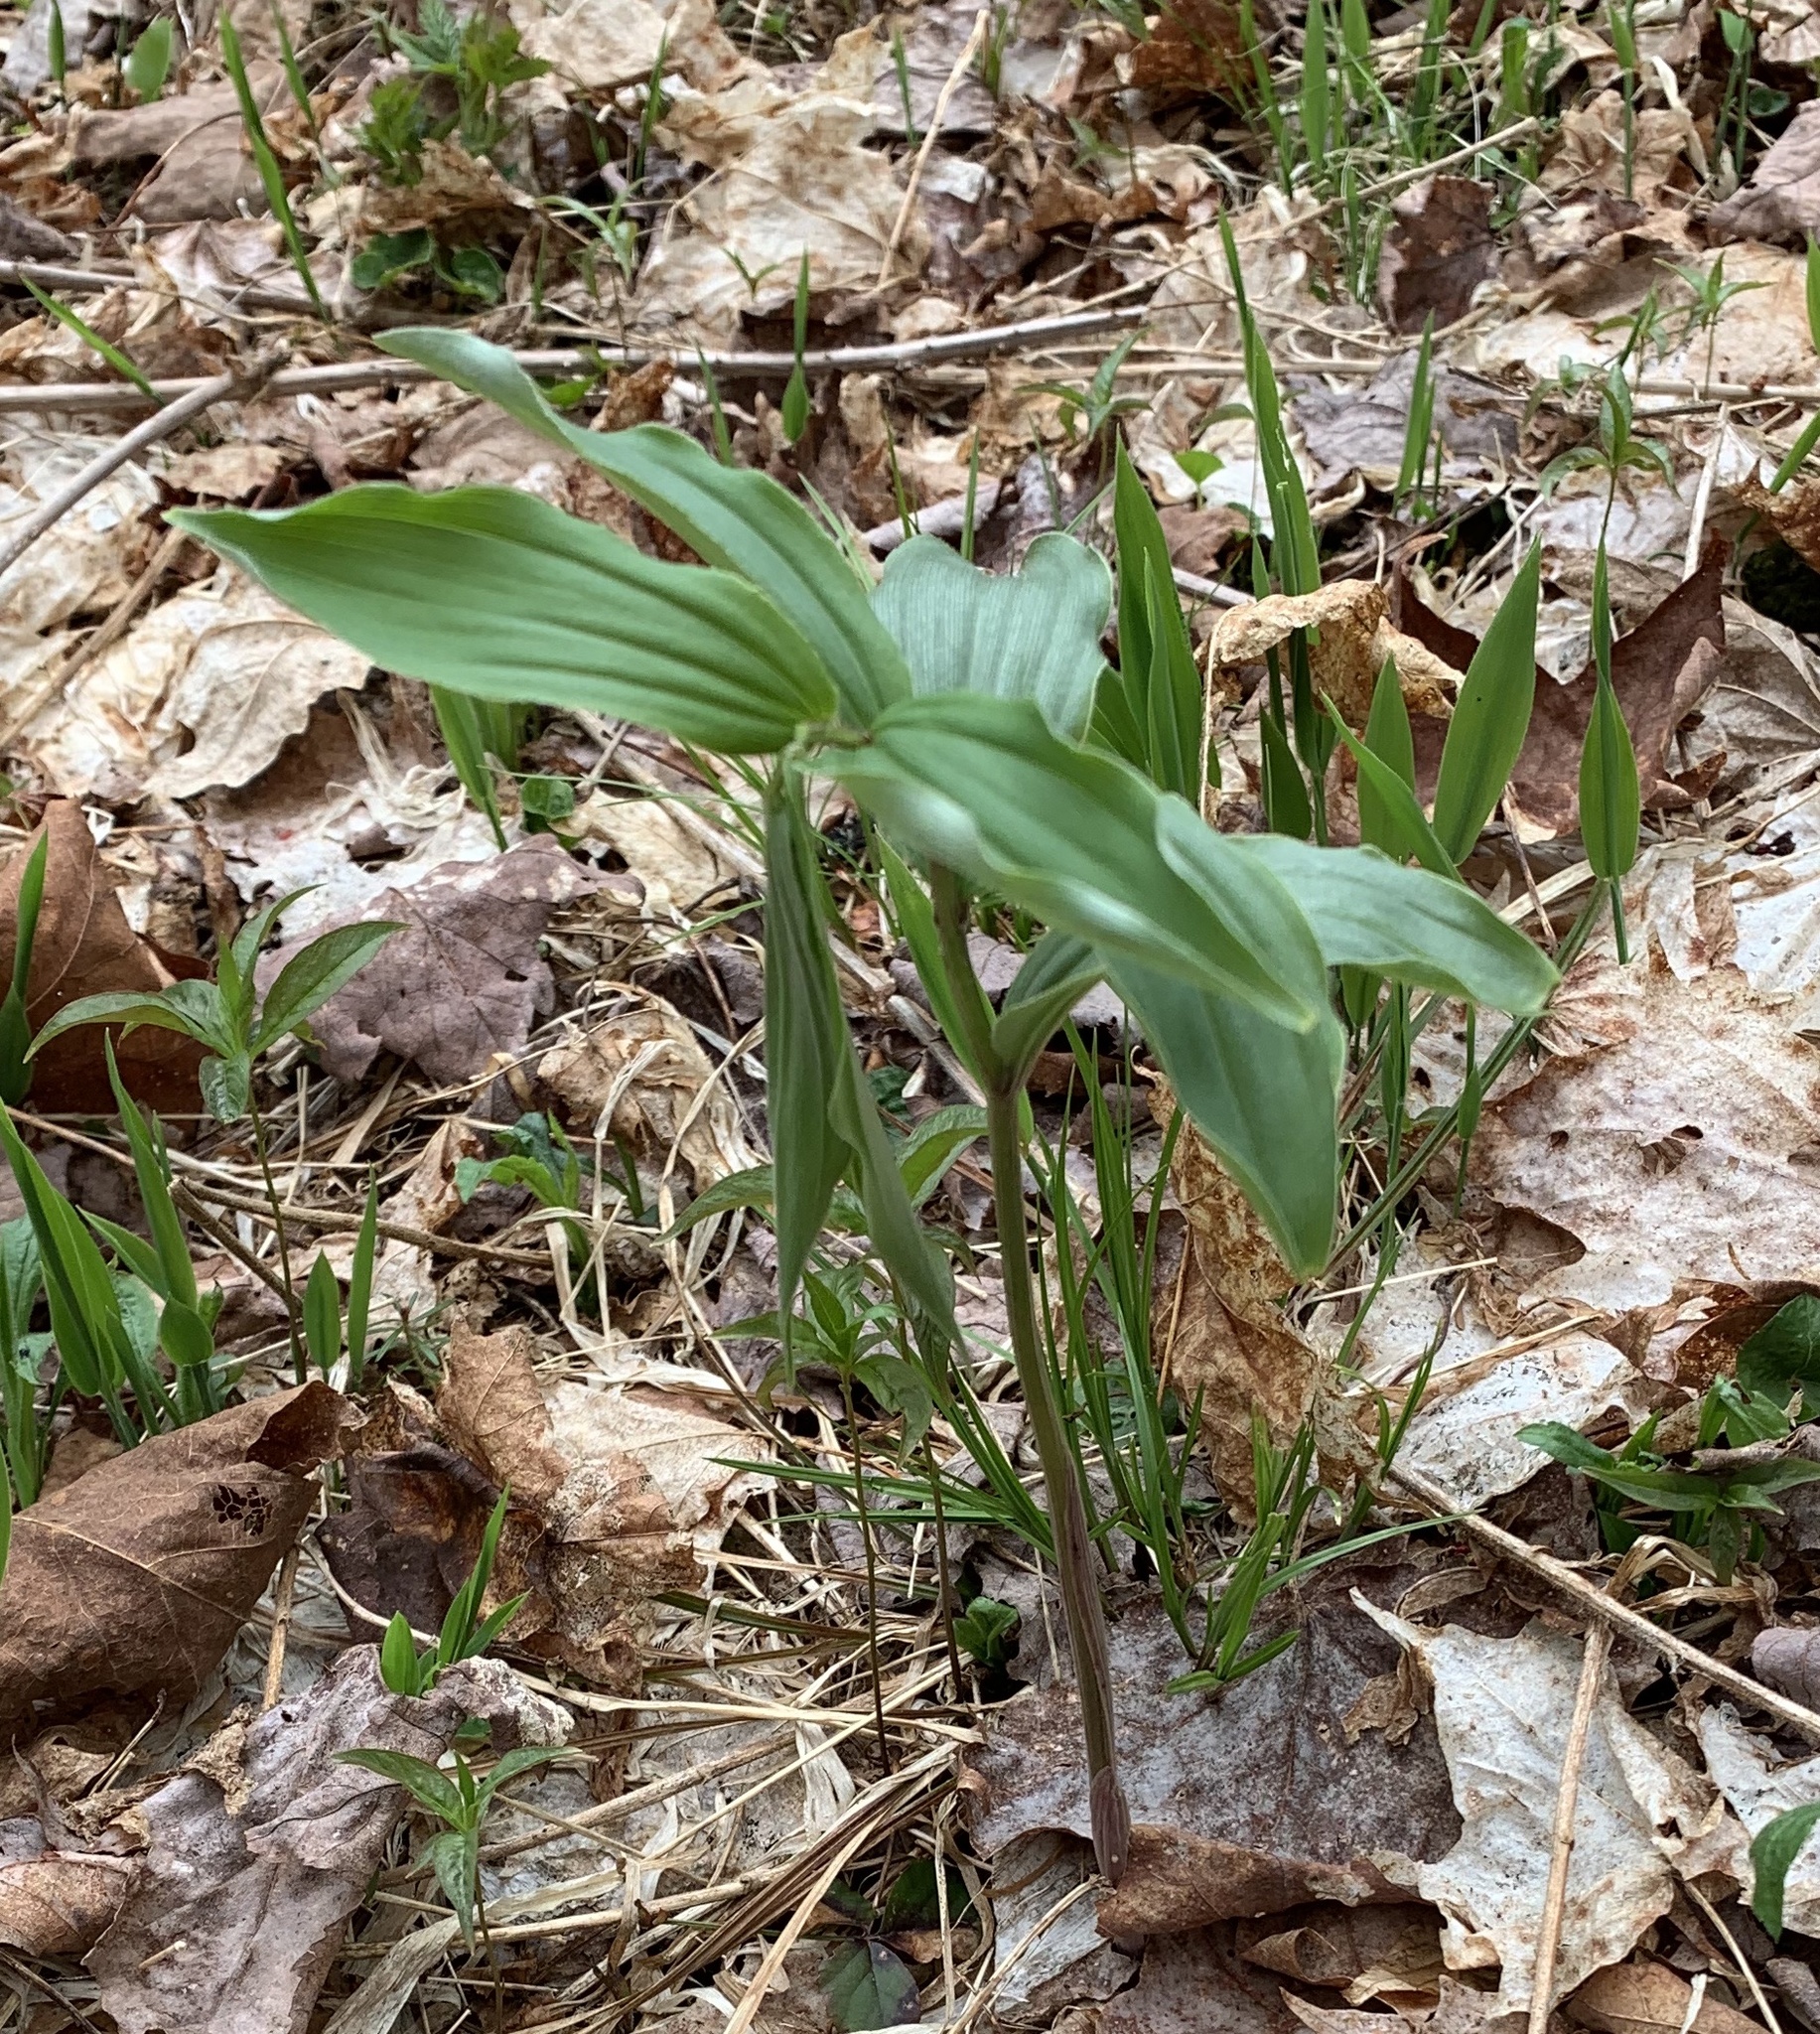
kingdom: Plantae
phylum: Tracheophyta
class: Liliopsida
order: Liliales
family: Liliaceae
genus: Streptopus
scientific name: Streptopus lanceolatus
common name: Rose mandarin
